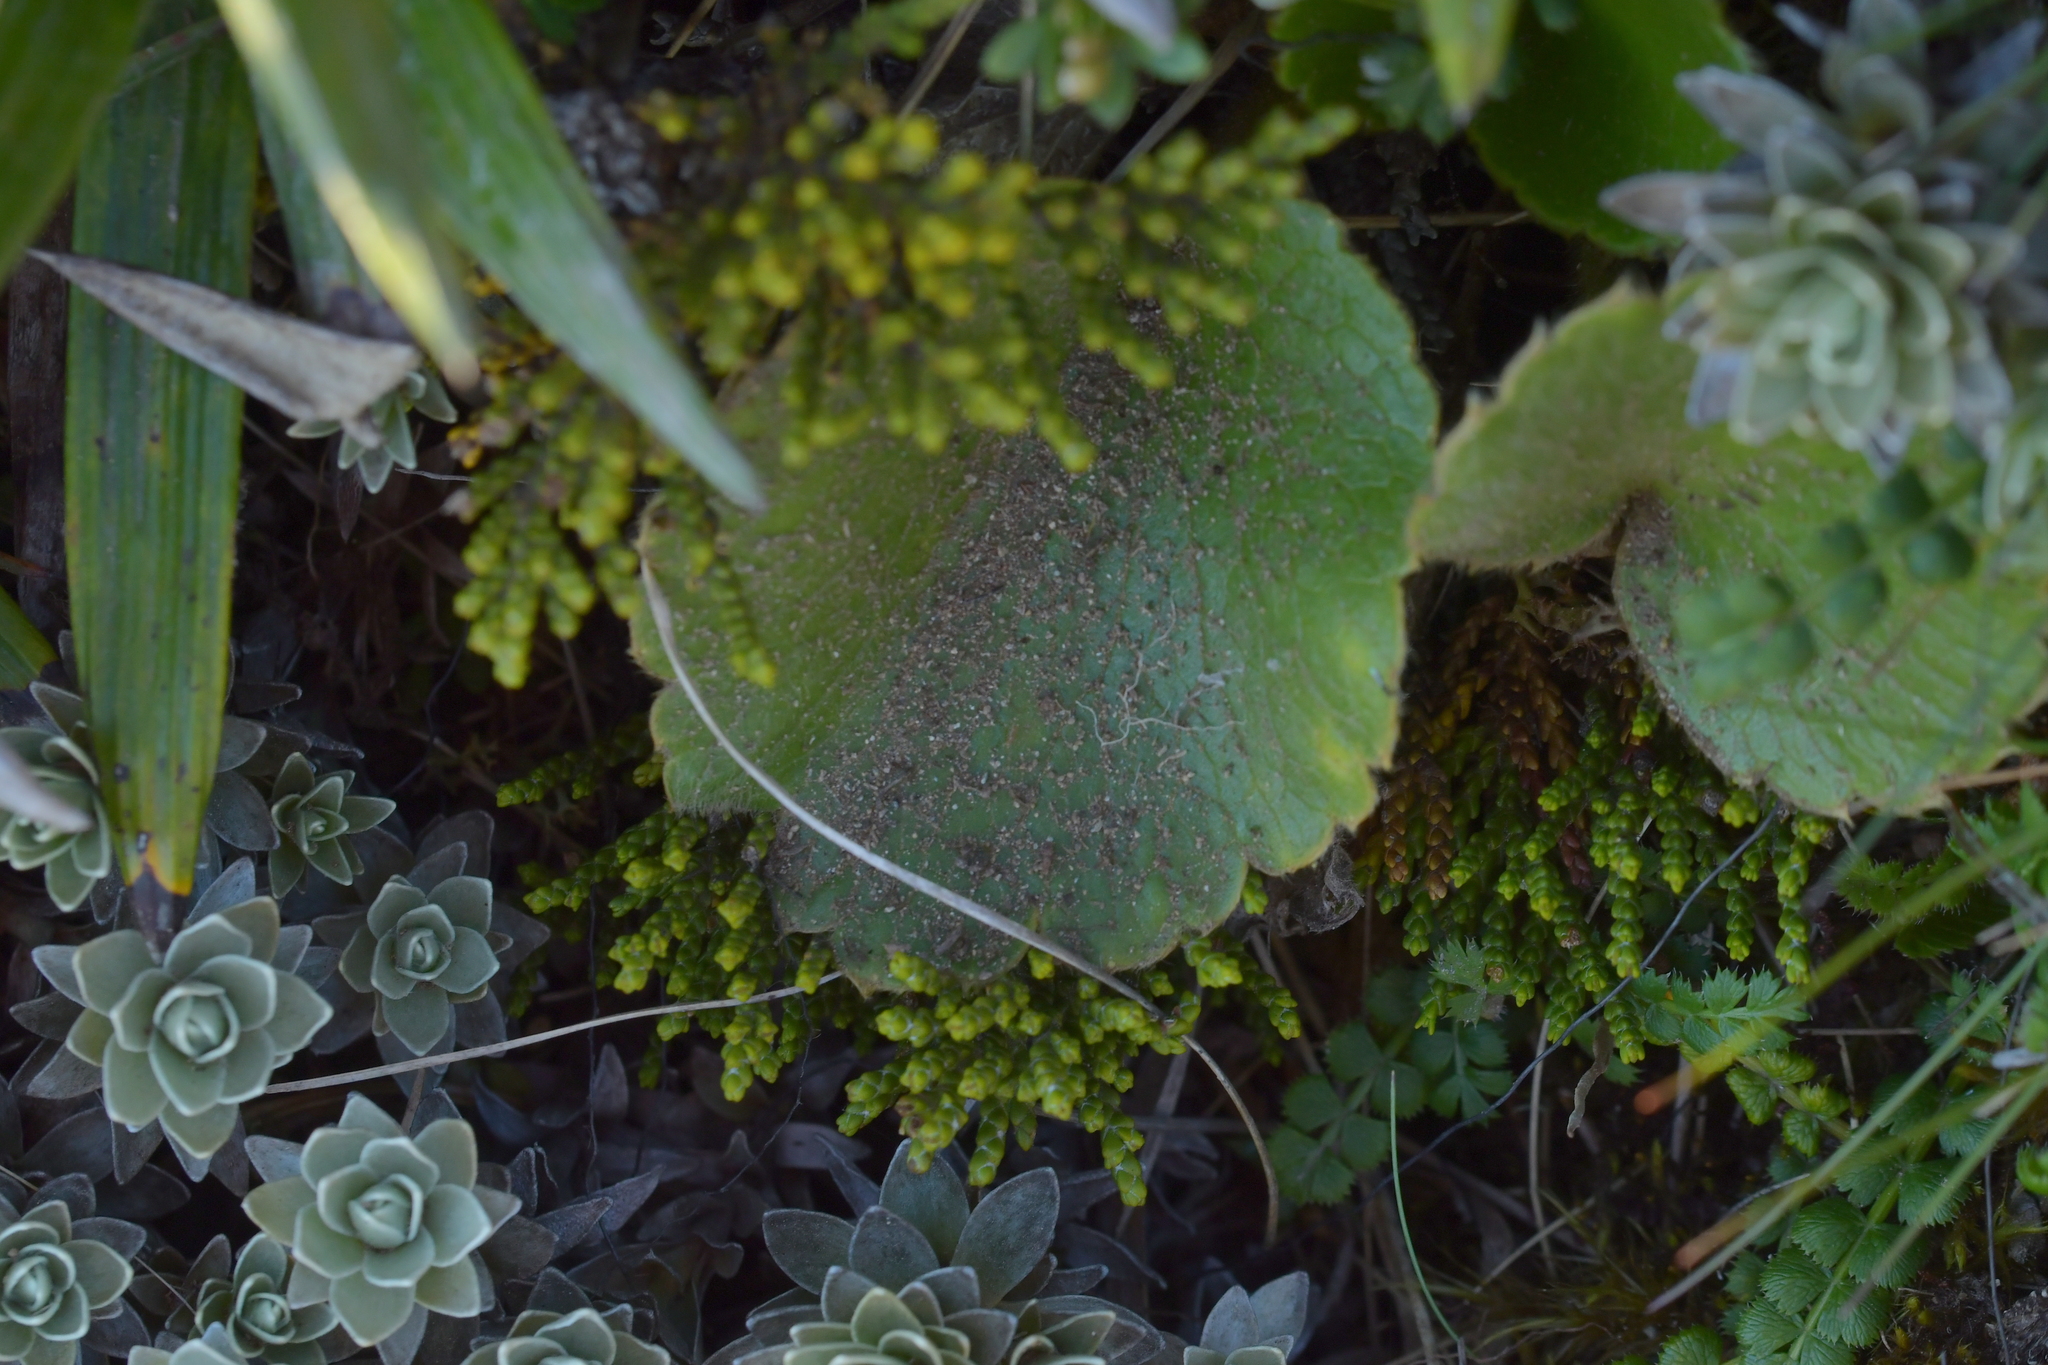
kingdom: Plantae
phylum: Tracheophyta
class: Magnoliopsida
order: Ranunculales
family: Ranunculaceae
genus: Ranunculus
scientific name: Ranunculus insignis
